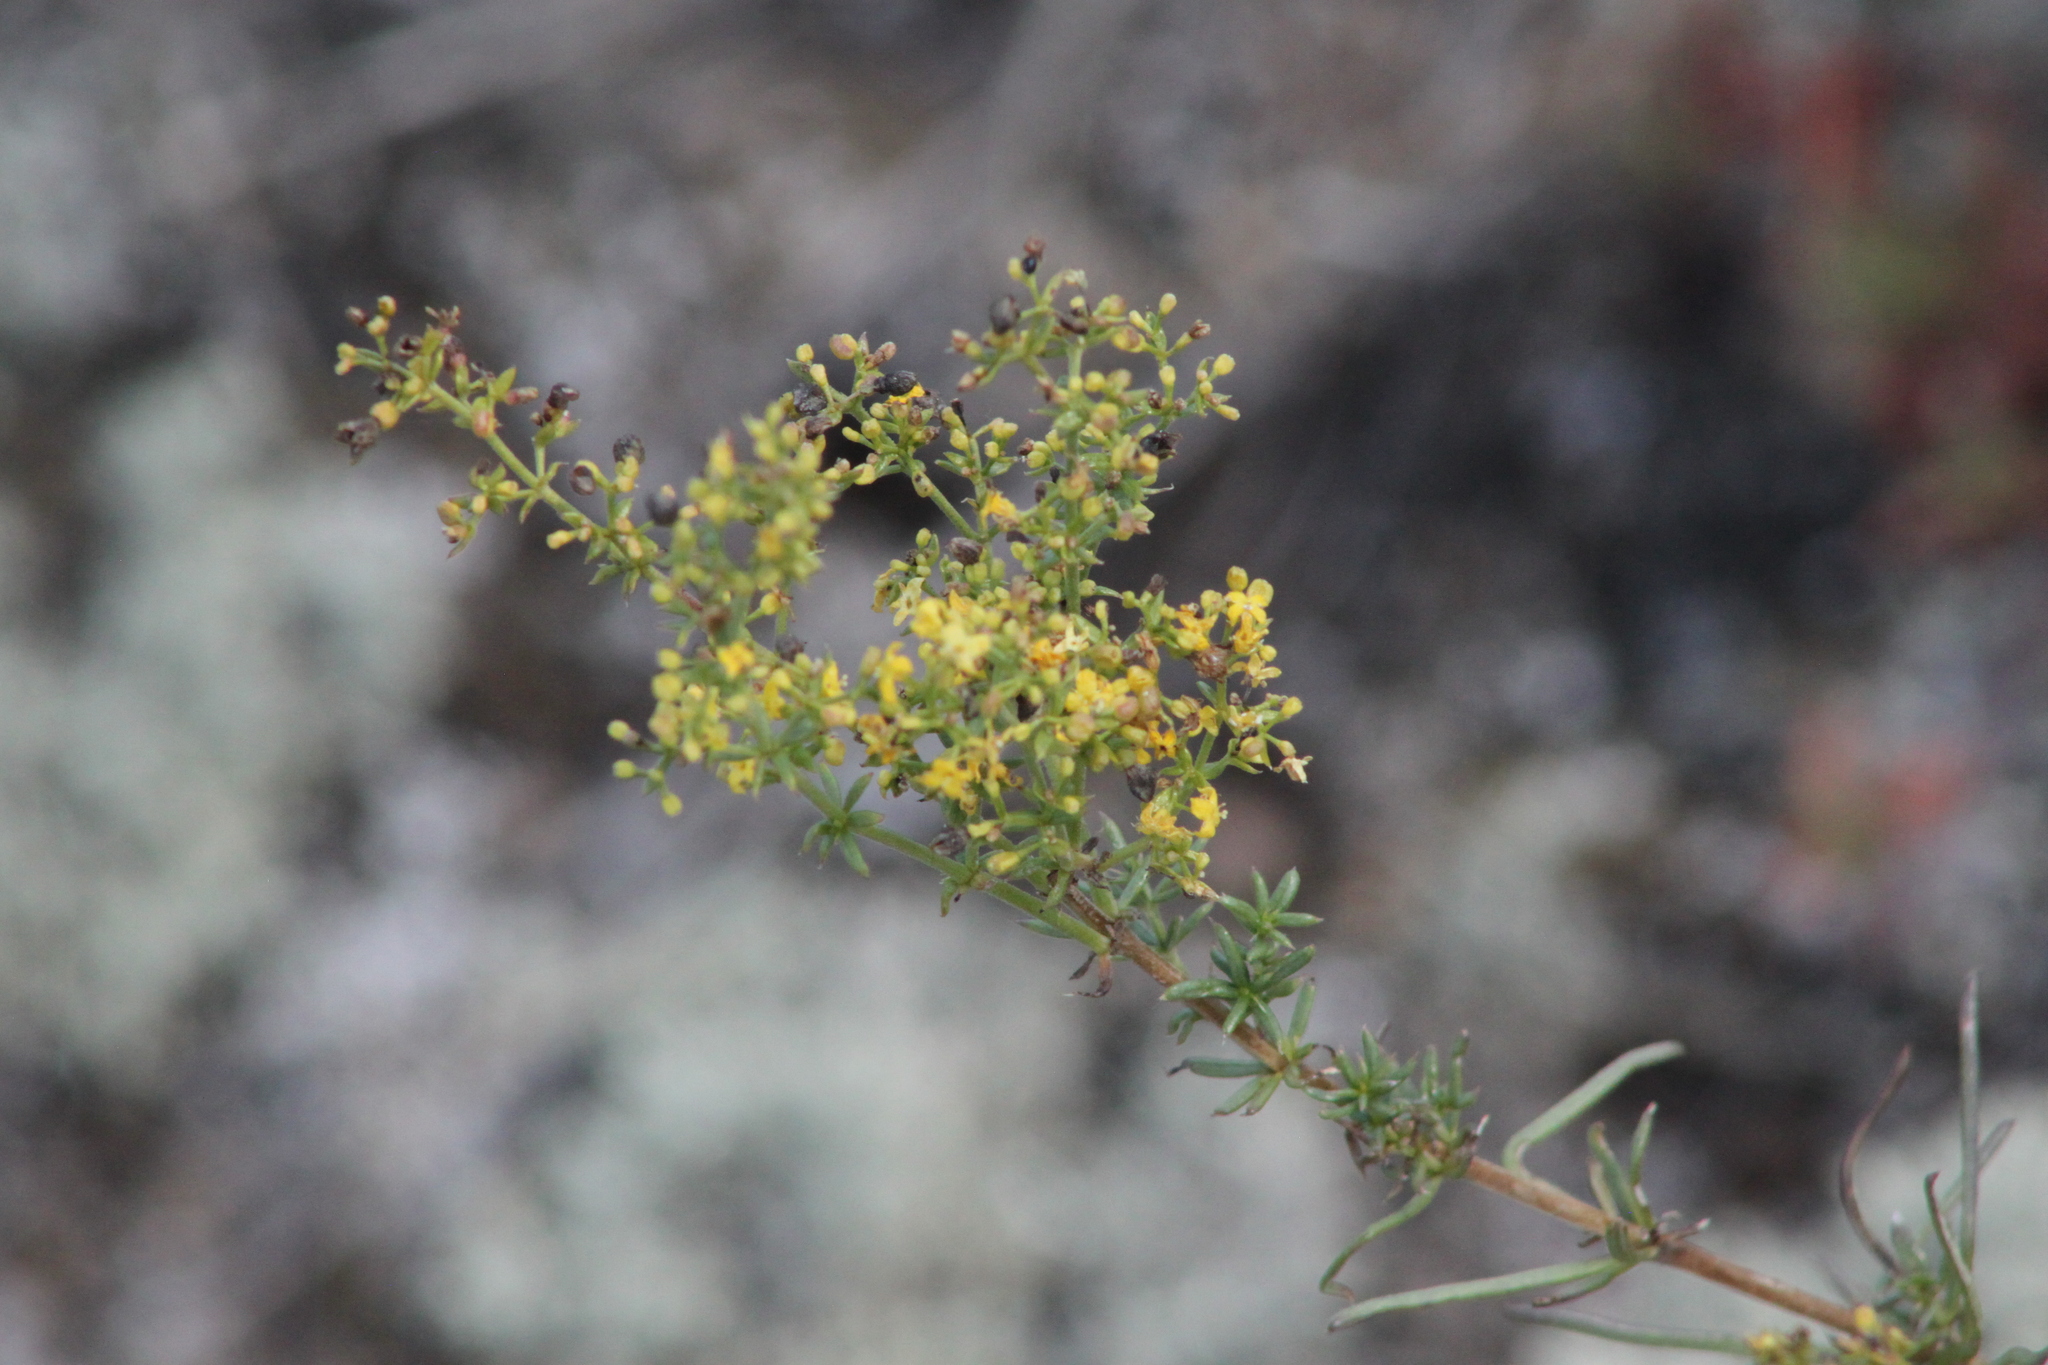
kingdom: Plantae
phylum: Tracheophyta
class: Magnoliopsida
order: Gentianales
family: Rubiaceae
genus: Galium
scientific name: Galium verum
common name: Lady's bedstraw
